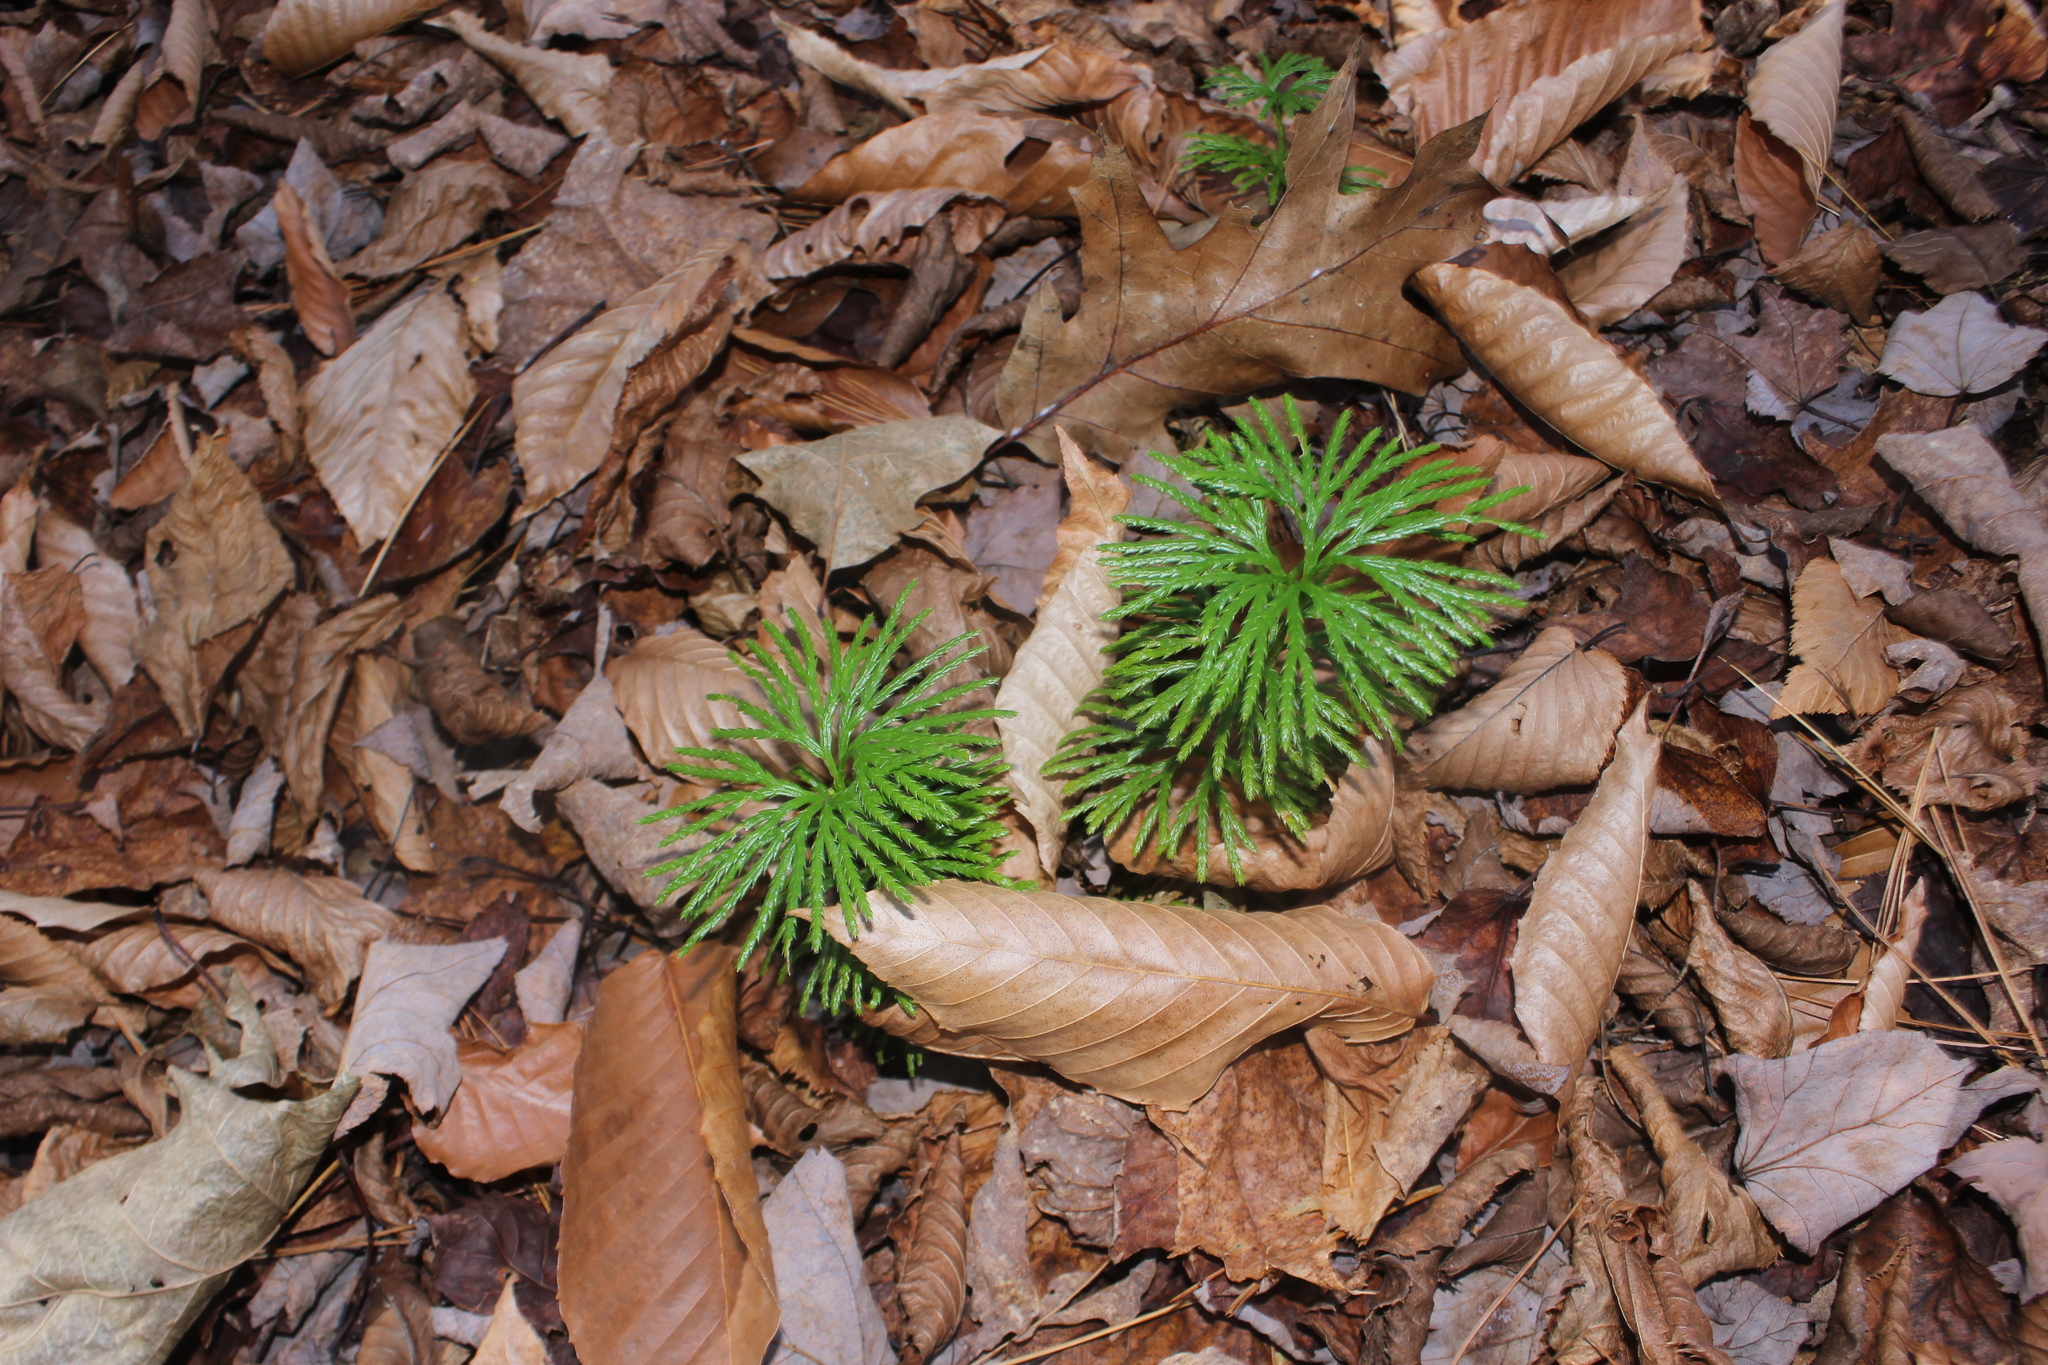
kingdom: Plantae
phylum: Tracheophyta
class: Lycopodiopsida
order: Lycopodiales
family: Lycopodiaceae
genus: Diphasiastrum
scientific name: Diphasiastrum digitatum
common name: Southern running-pine
